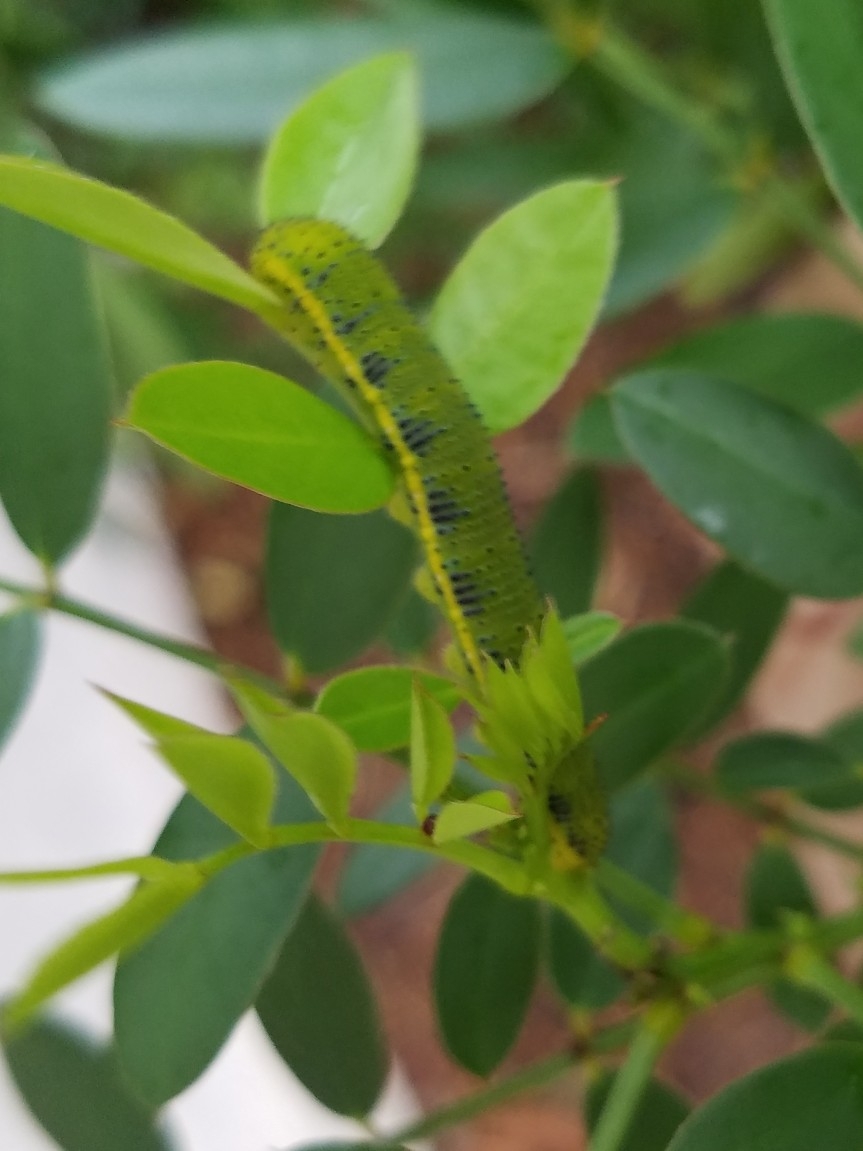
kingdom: Animalia
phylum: Arthropoda
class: Insecta
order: Lepidoptera
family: Pieridae
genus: Phoebis
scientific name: Phoebis sennae
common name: Cloudless sulphur
